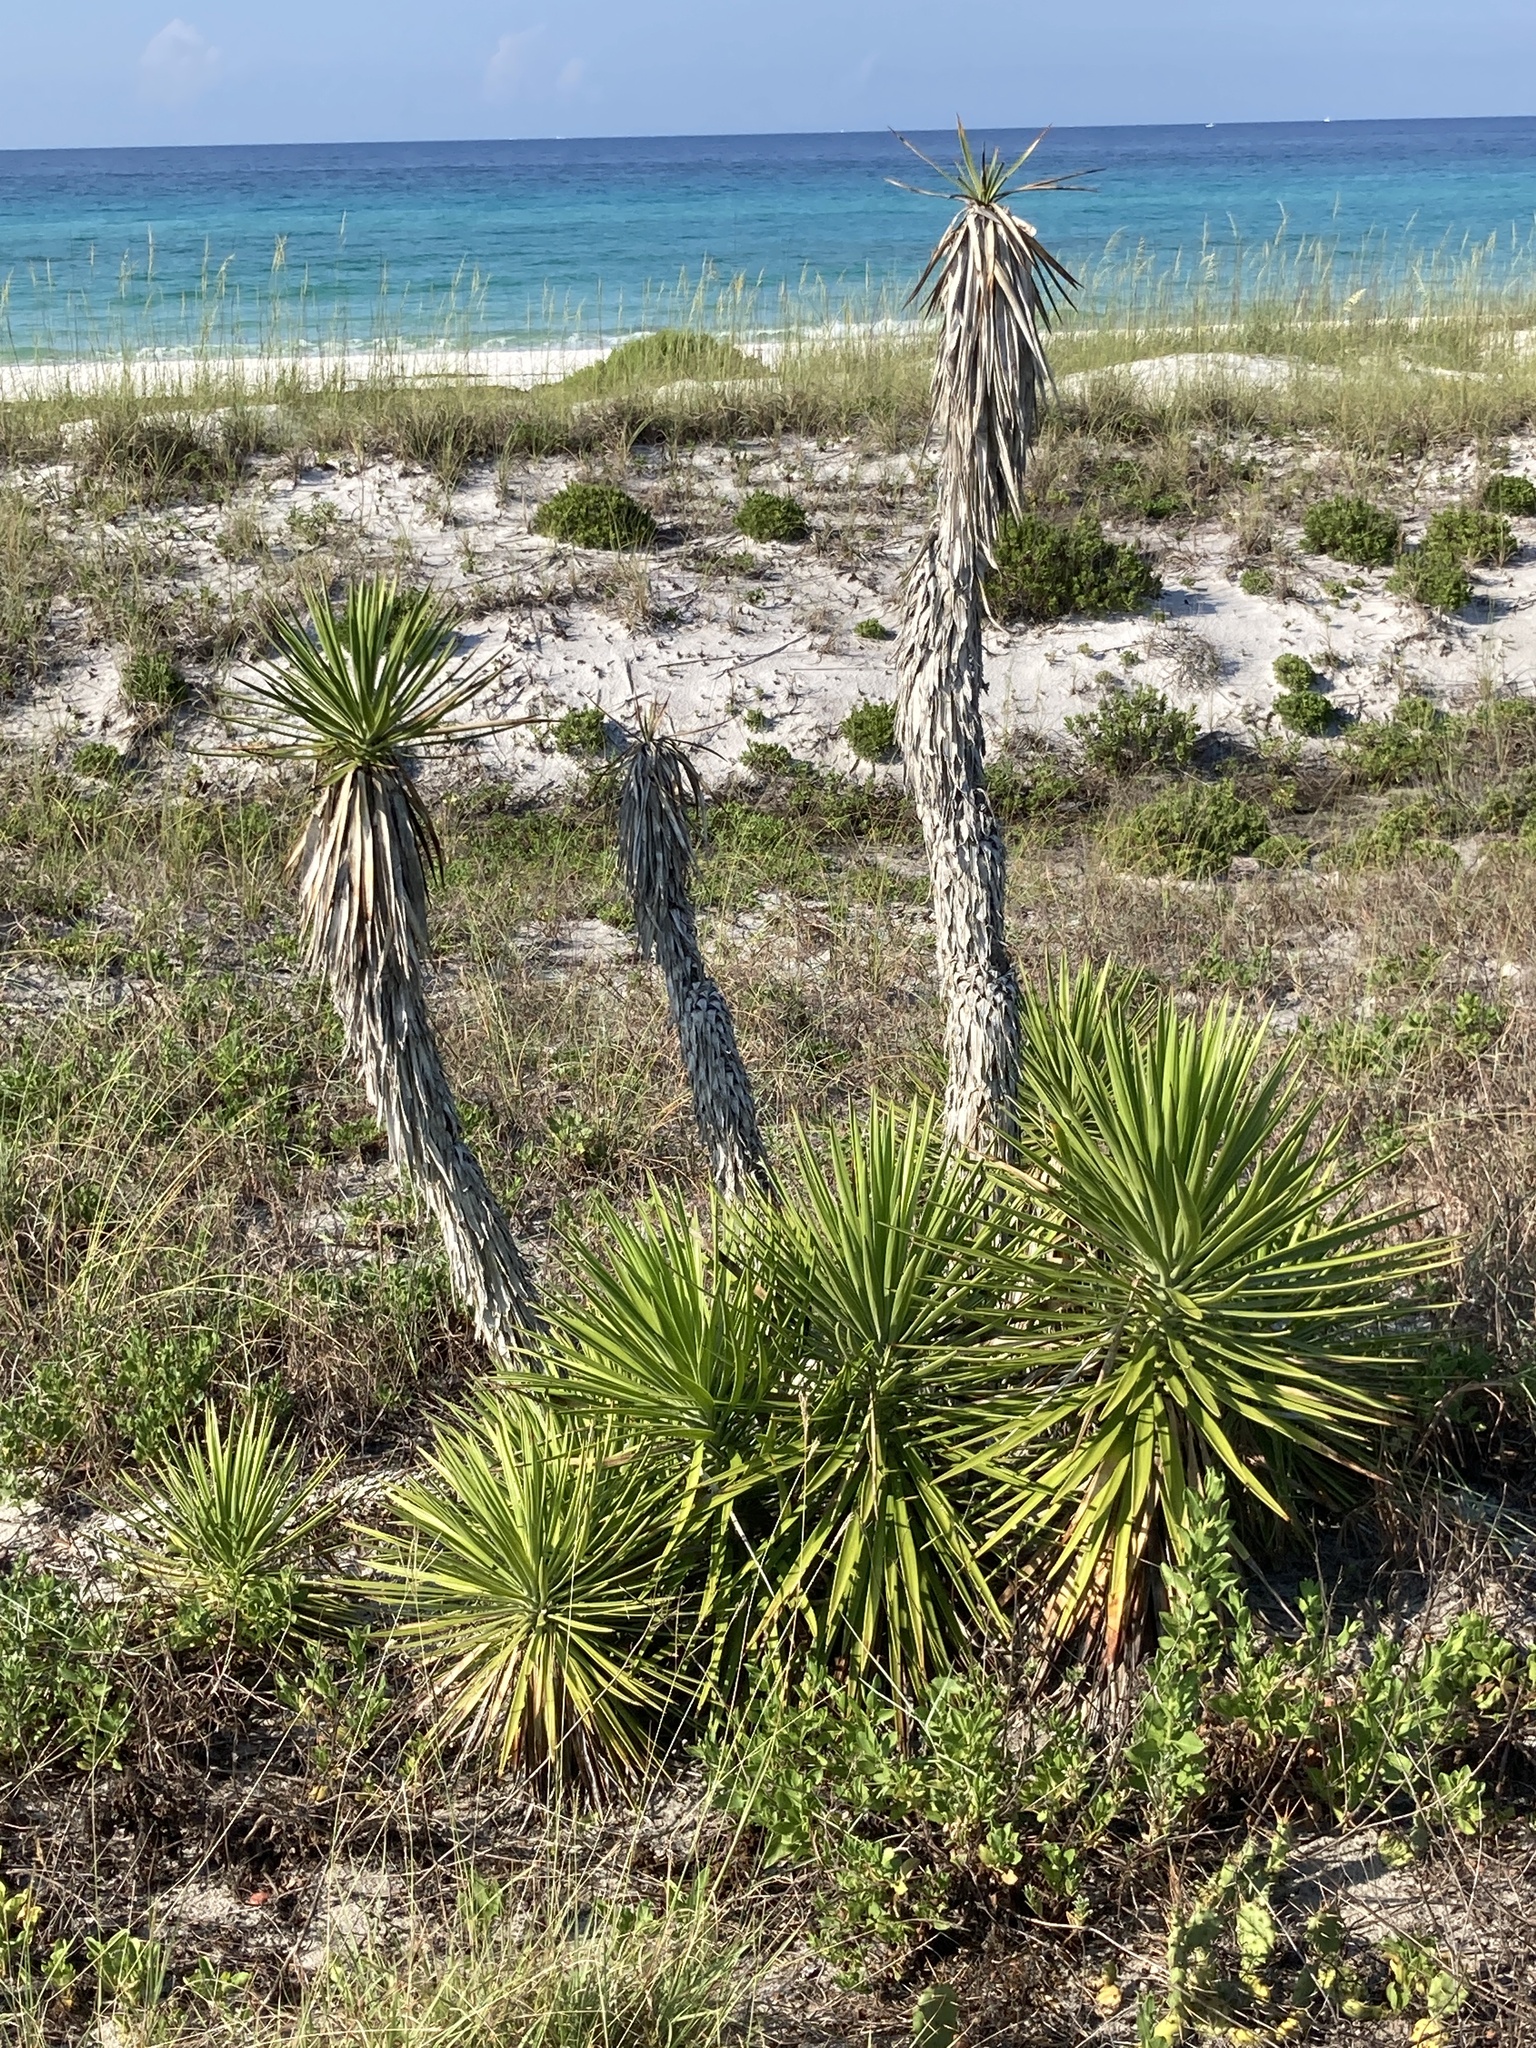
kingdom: Plantae
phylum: Tracheophyta
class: Liliopsida
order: Asparagales
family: Asparagaceae
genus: Yucca
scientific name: Yucca aloifolia
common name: Aloe yucca
